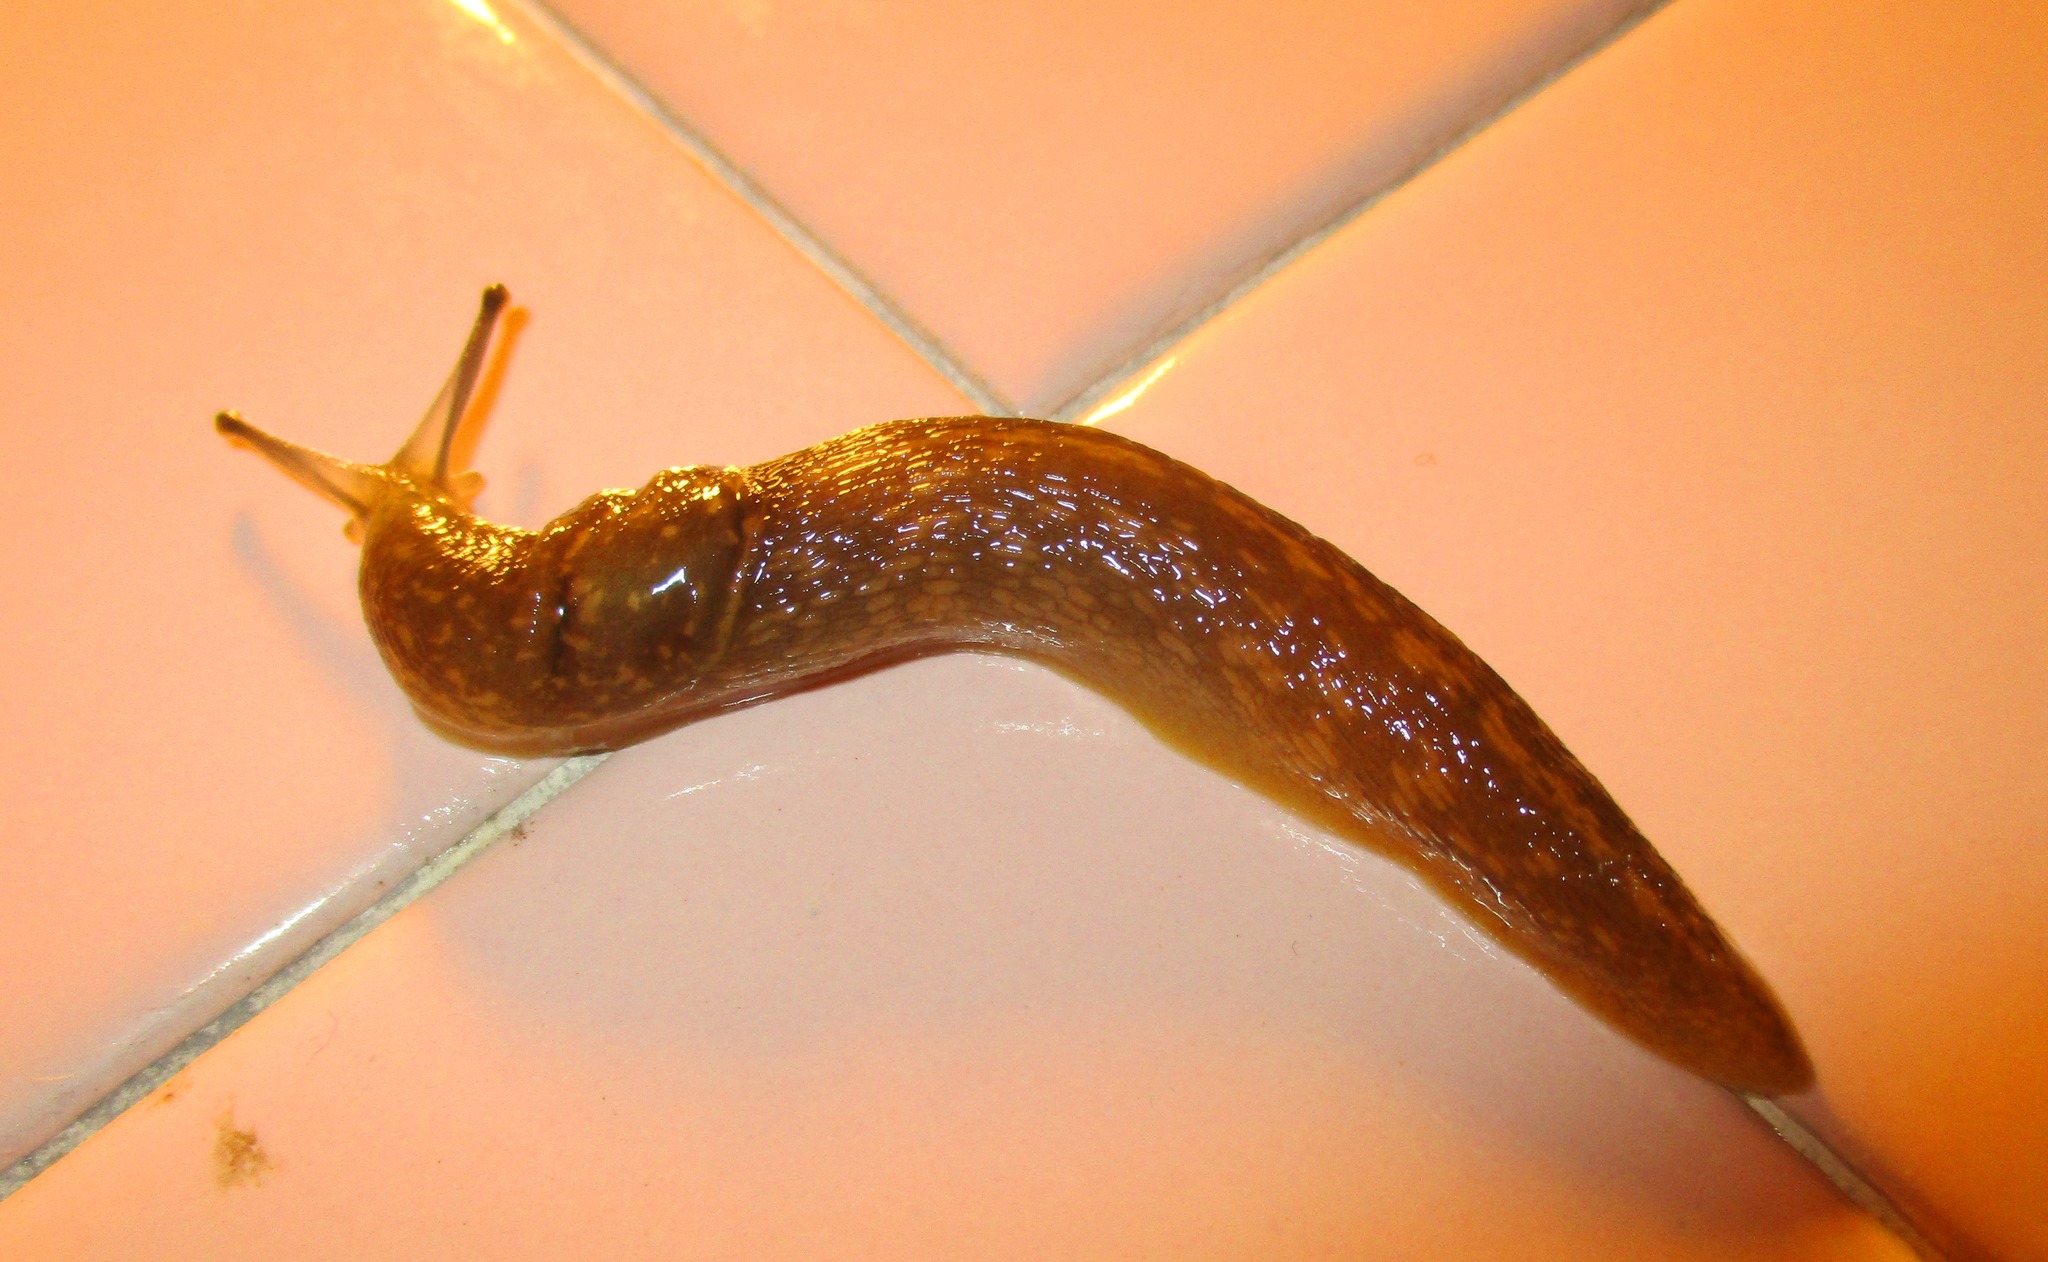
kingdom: Animalia
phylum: Mollusca
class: Gastropoda
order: Stylommatophora
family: Limacidae
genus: Limacus
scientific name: Limacus flavus
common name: Yellow gardenslug
